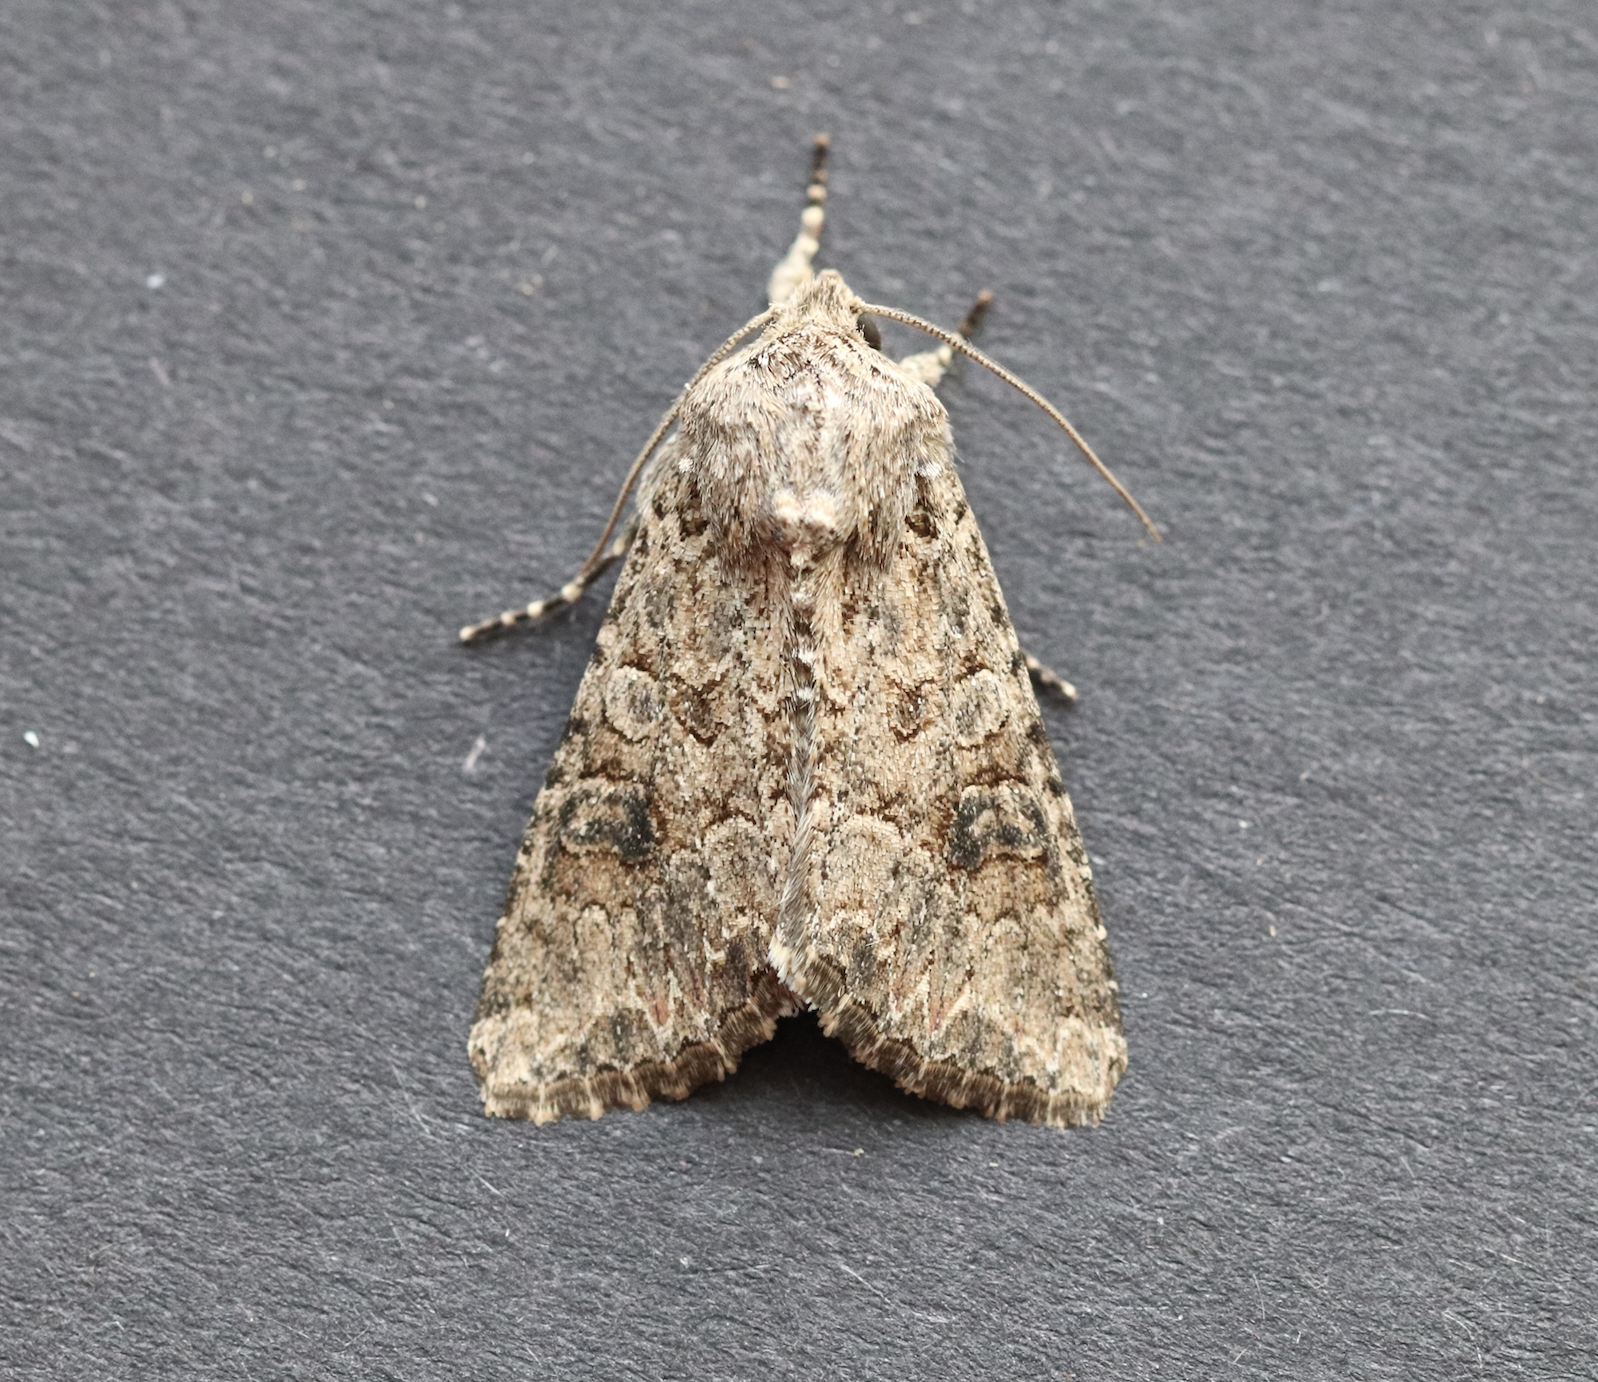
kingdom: Animalia
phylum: Arthropoda
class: Insecta
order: Lepidoptera
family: Noctuidae
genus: Anarta
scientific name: Anarta trifolii
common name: Clover cutworm moth
